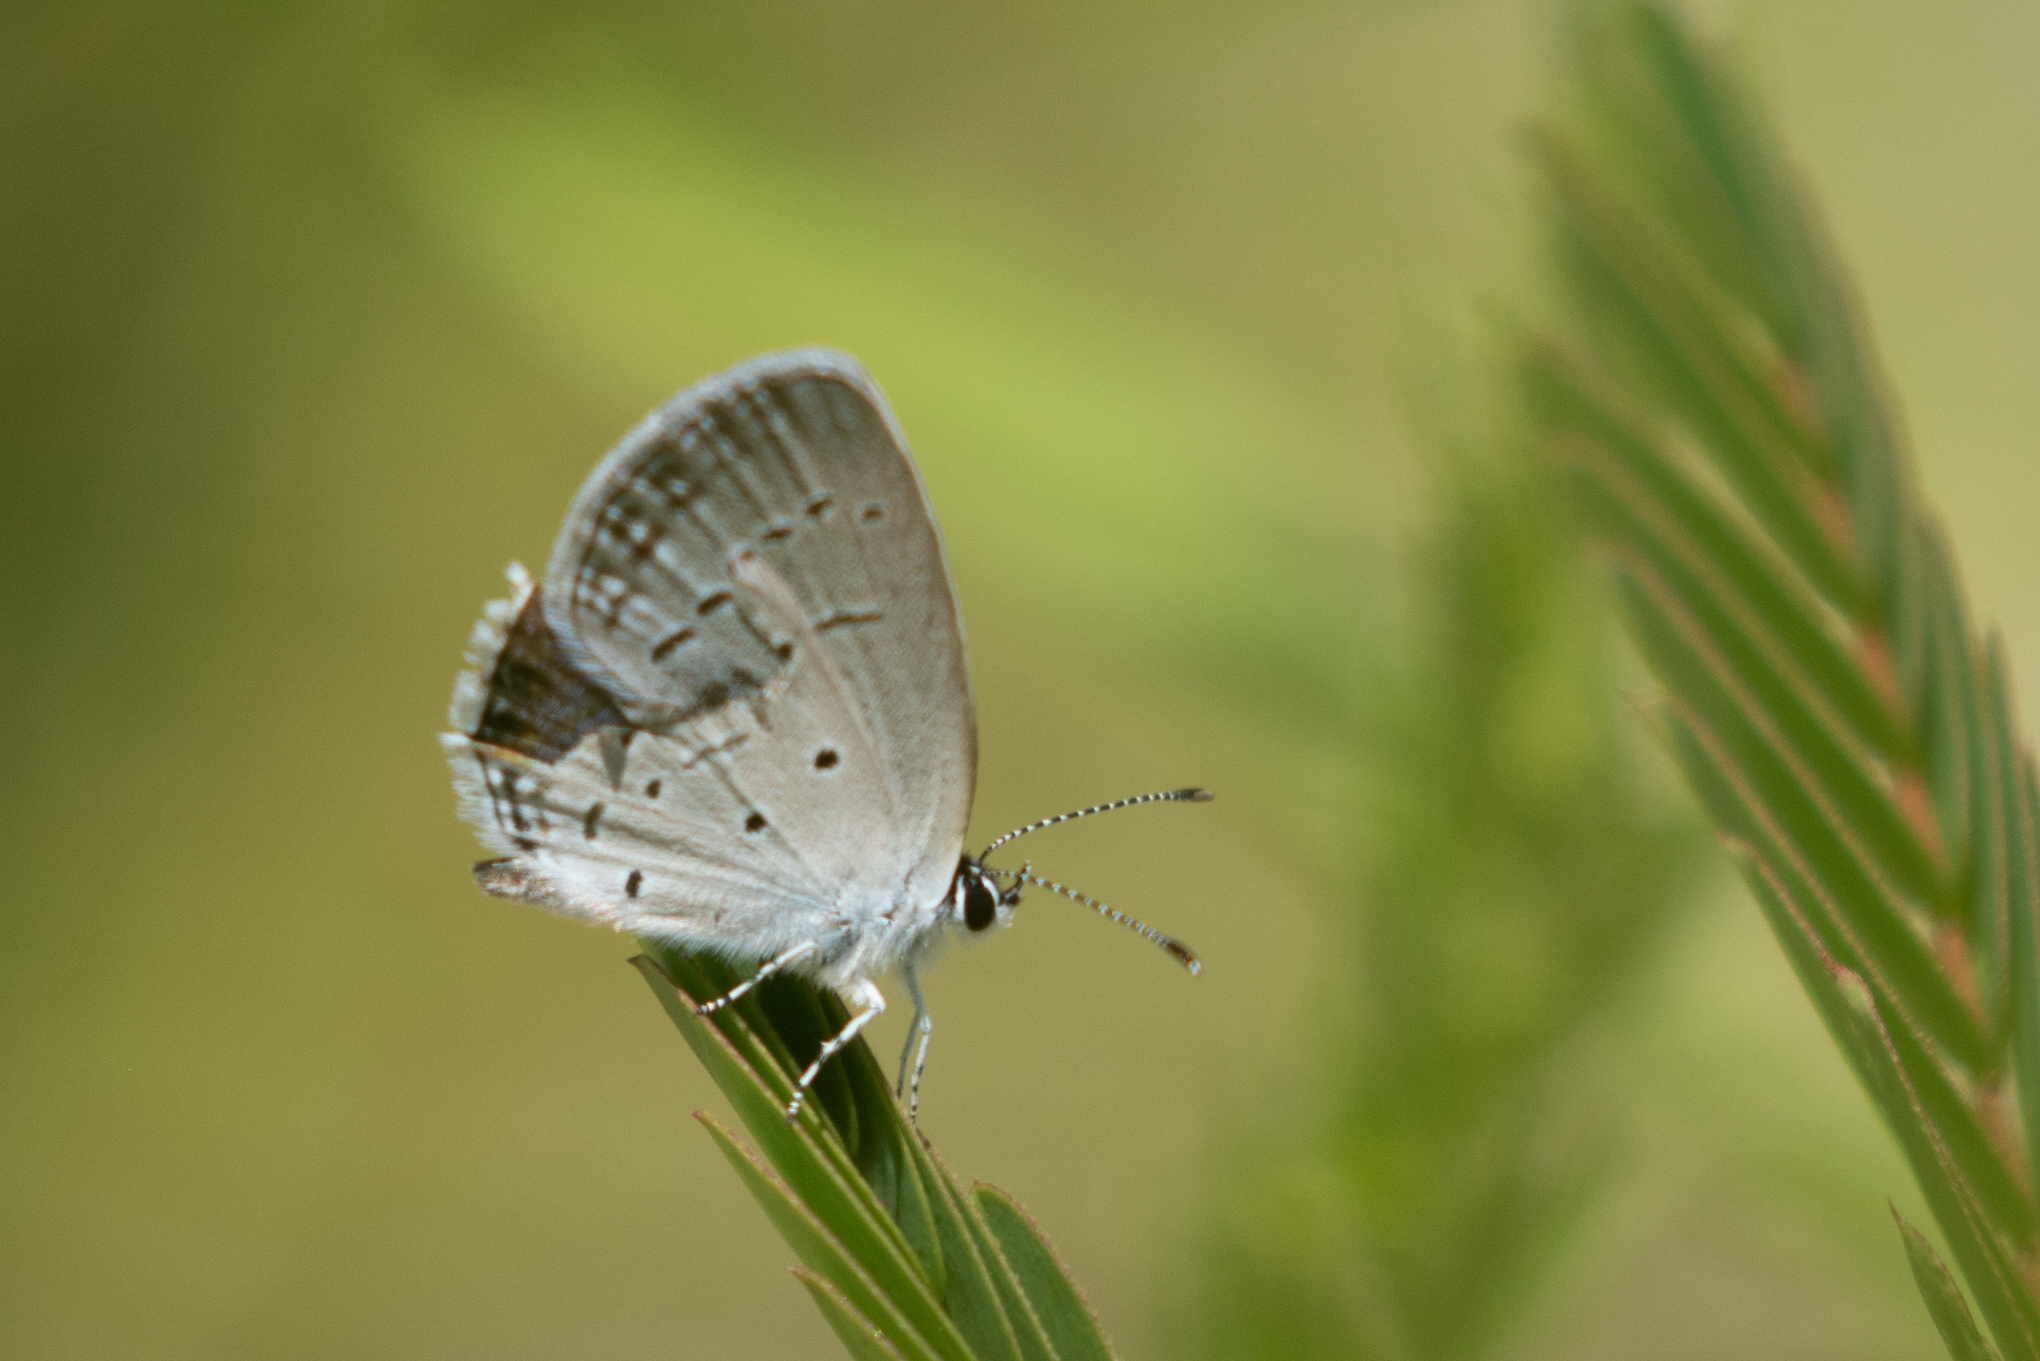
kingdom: Animalia
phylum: Arthropoda
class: Insecta
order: Lepidoptera
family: Lycaenidae
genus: Elkalyce
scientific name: Elkalyce comyntas
